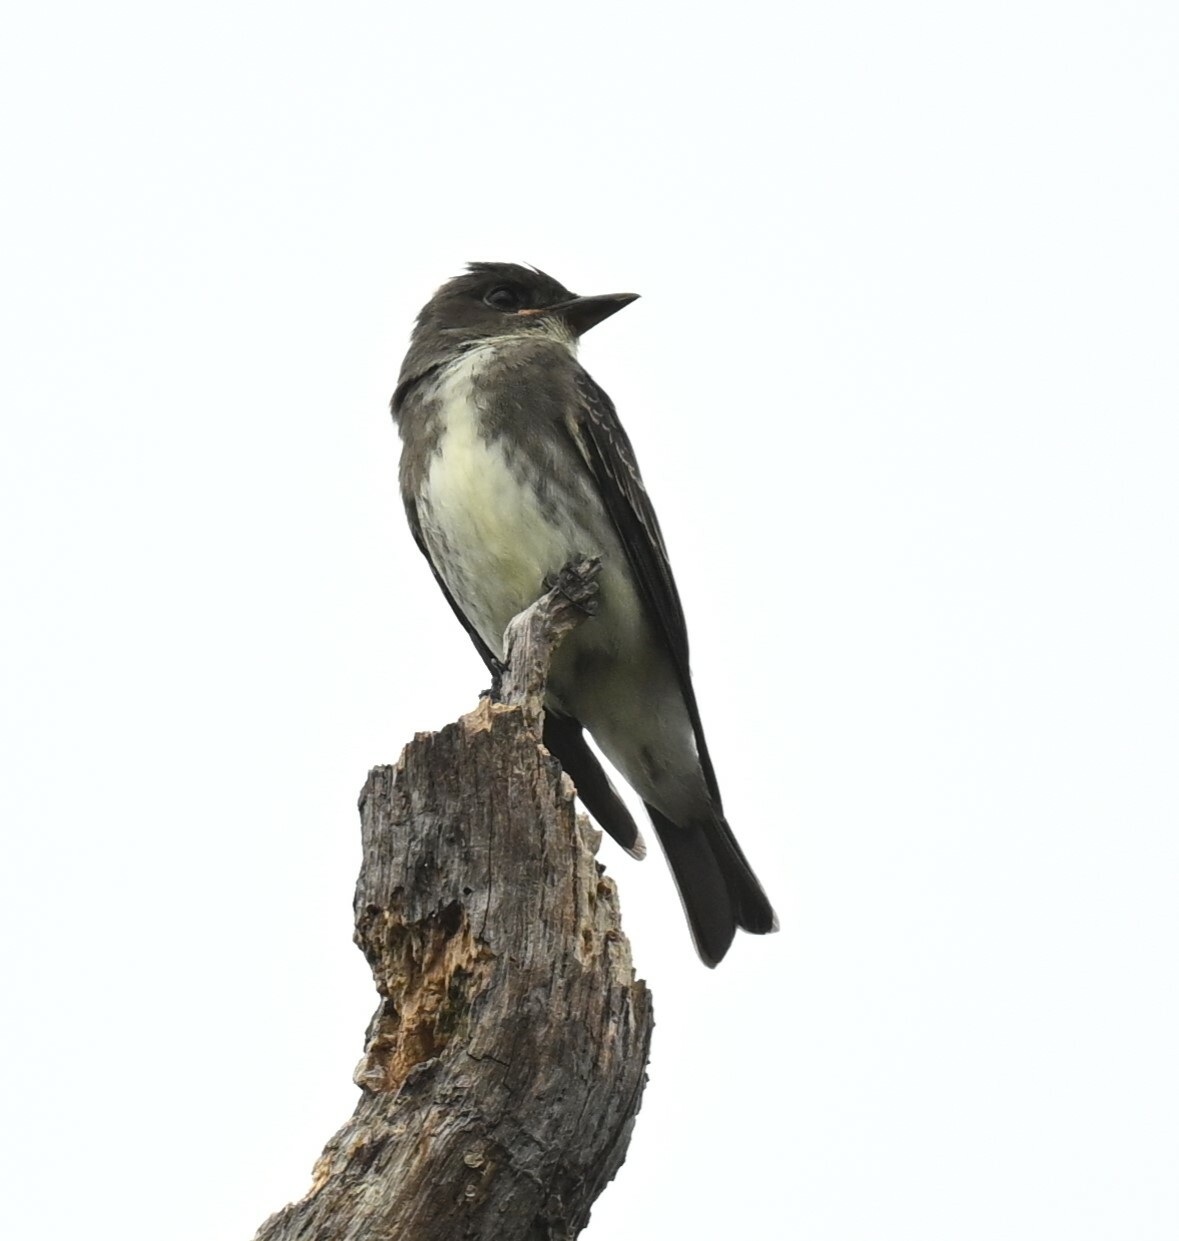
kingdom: Animalia
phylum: Chordata
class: Aves
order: Passeriformes
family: Tyrannidae
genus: Contopus
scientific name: Contopus cooperi
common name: Olive-sided flycatcher
